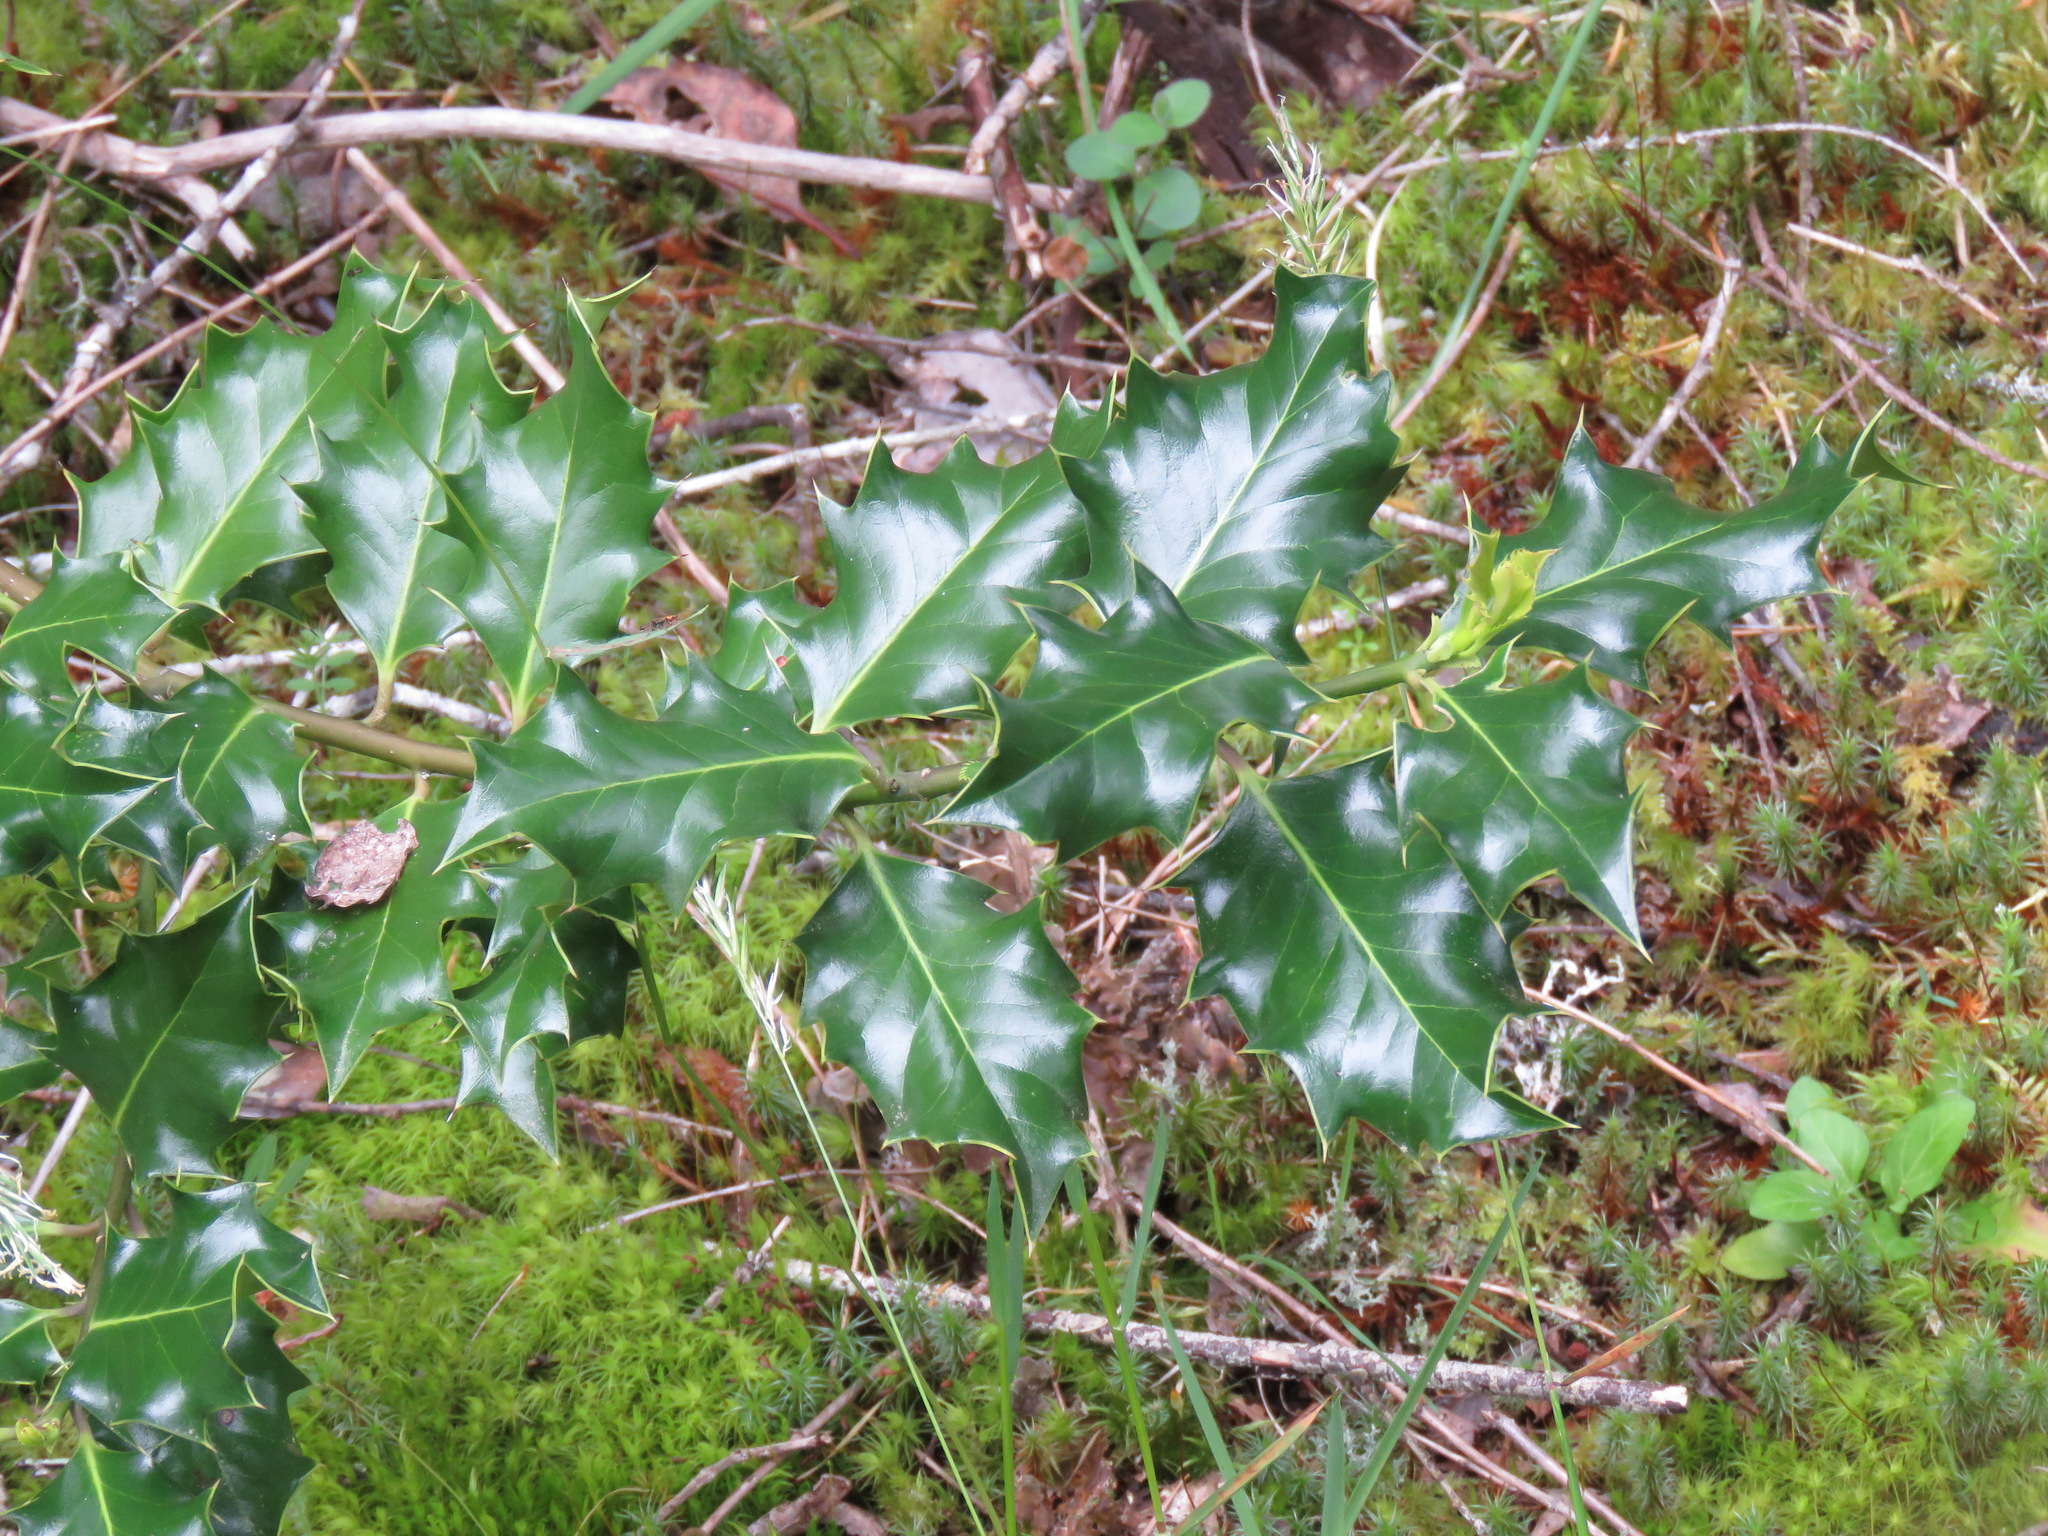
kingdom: Plantae
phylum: Tracheophyta
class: Magnoliopsida
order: Aquifoliales
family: Aquifoliaceae
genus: Ilex
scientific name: Ilex aquifolium
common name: English holly
